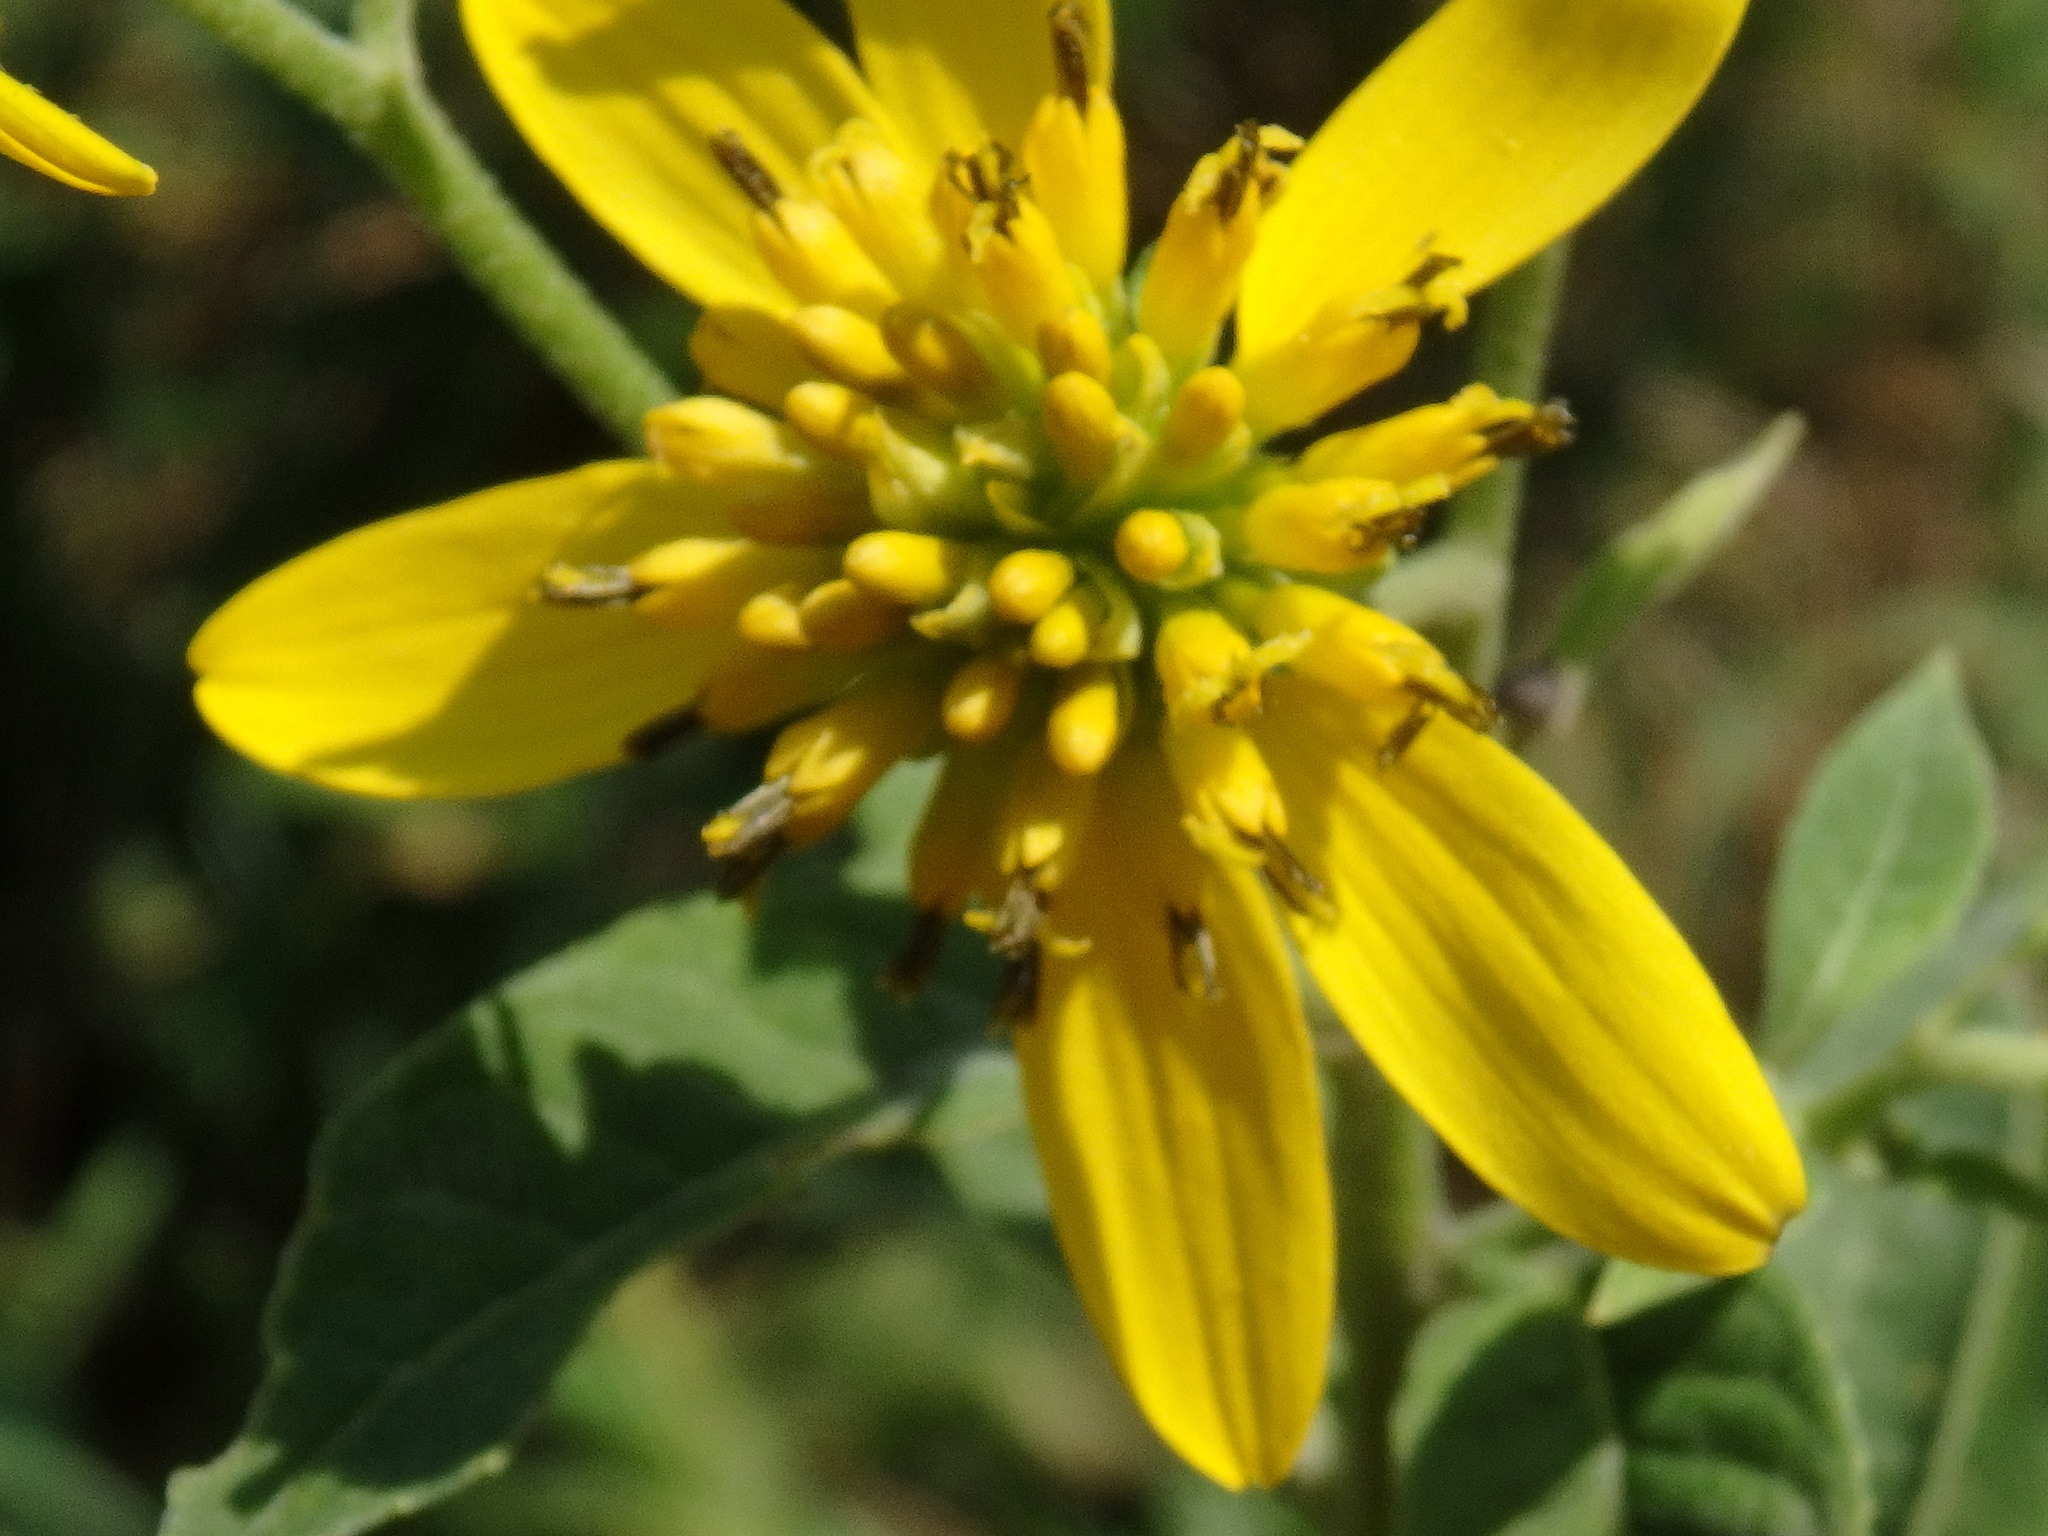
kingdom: Plantae
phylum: Tracheophyta
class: Magnoliopsida
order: Asterales
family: Asteraceae
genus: Verbesina
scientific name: Verbesina alternifolia
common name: Wingstem
